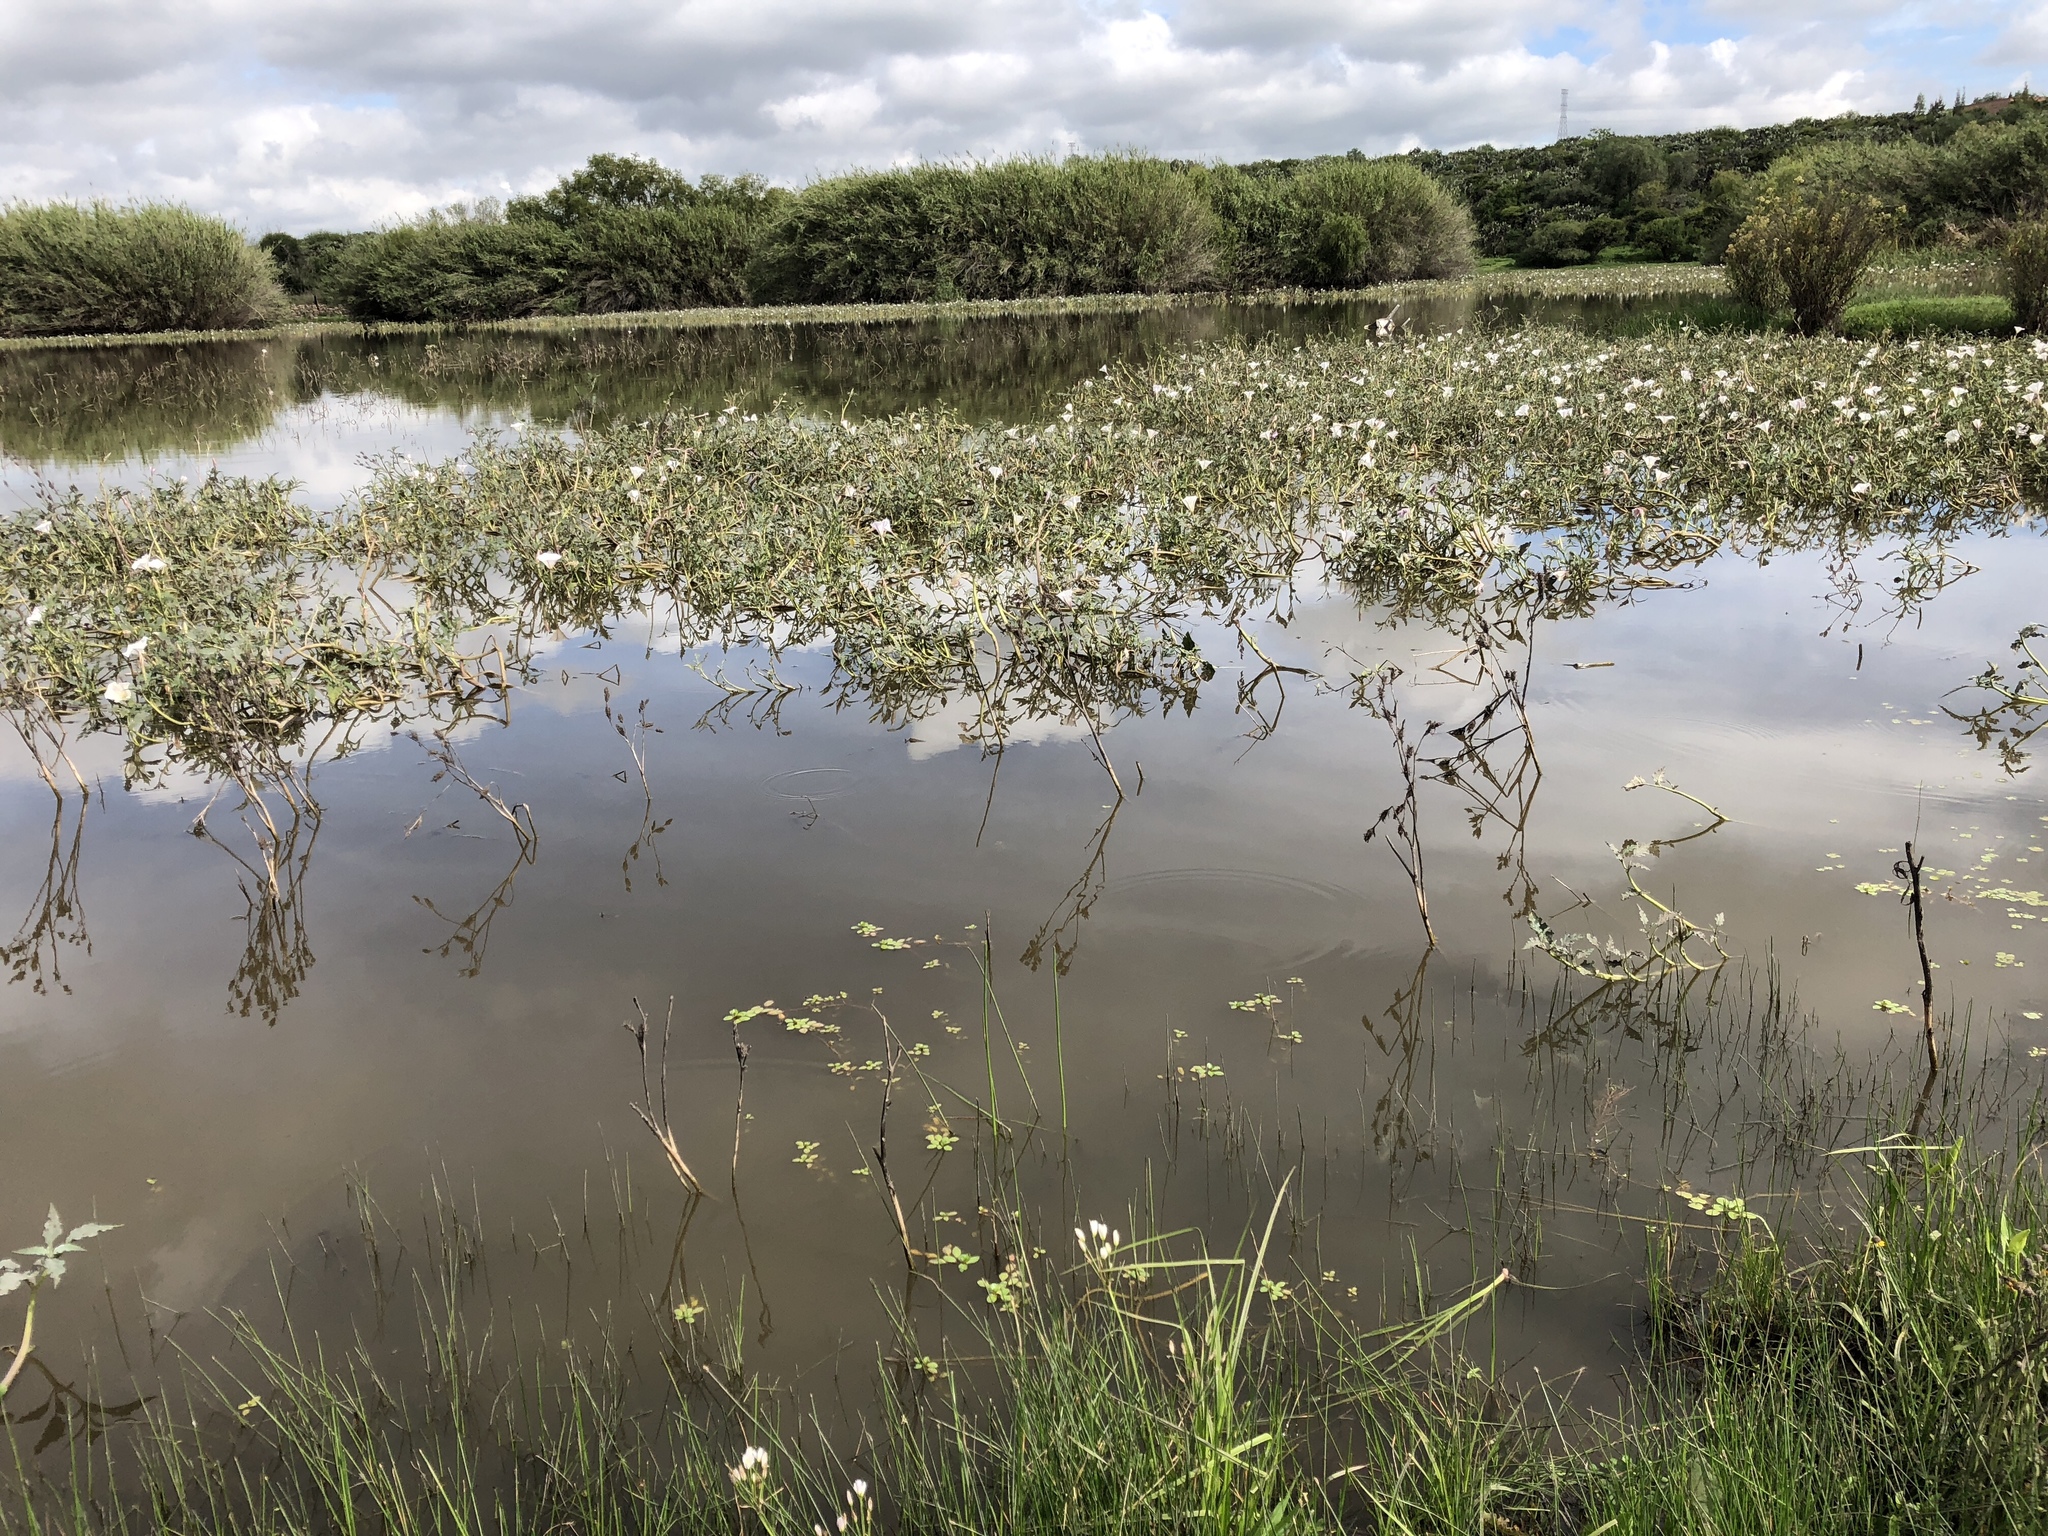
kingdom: Plantae
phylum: Tracheophyta
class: Magnoliopsida
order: Solanales
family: Solanaceae
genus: Datura
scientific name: Datura ceratocaula
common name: Latin thorn-apple
